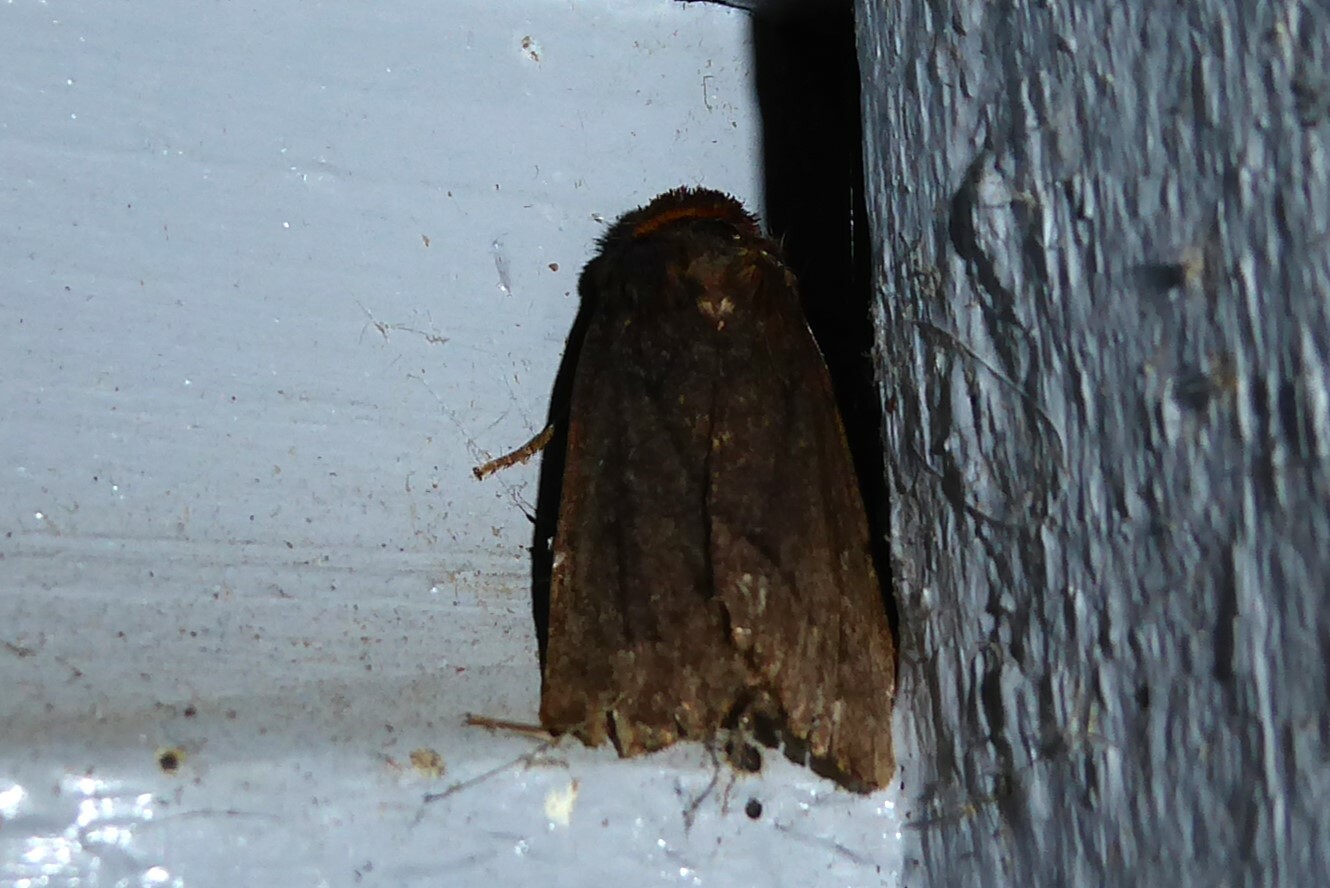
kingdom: Animalia
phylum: Arthropoda
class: Insecta
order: Lepidoptera
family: Noctuidae
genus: Bityla
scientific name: Bityla defigurata
